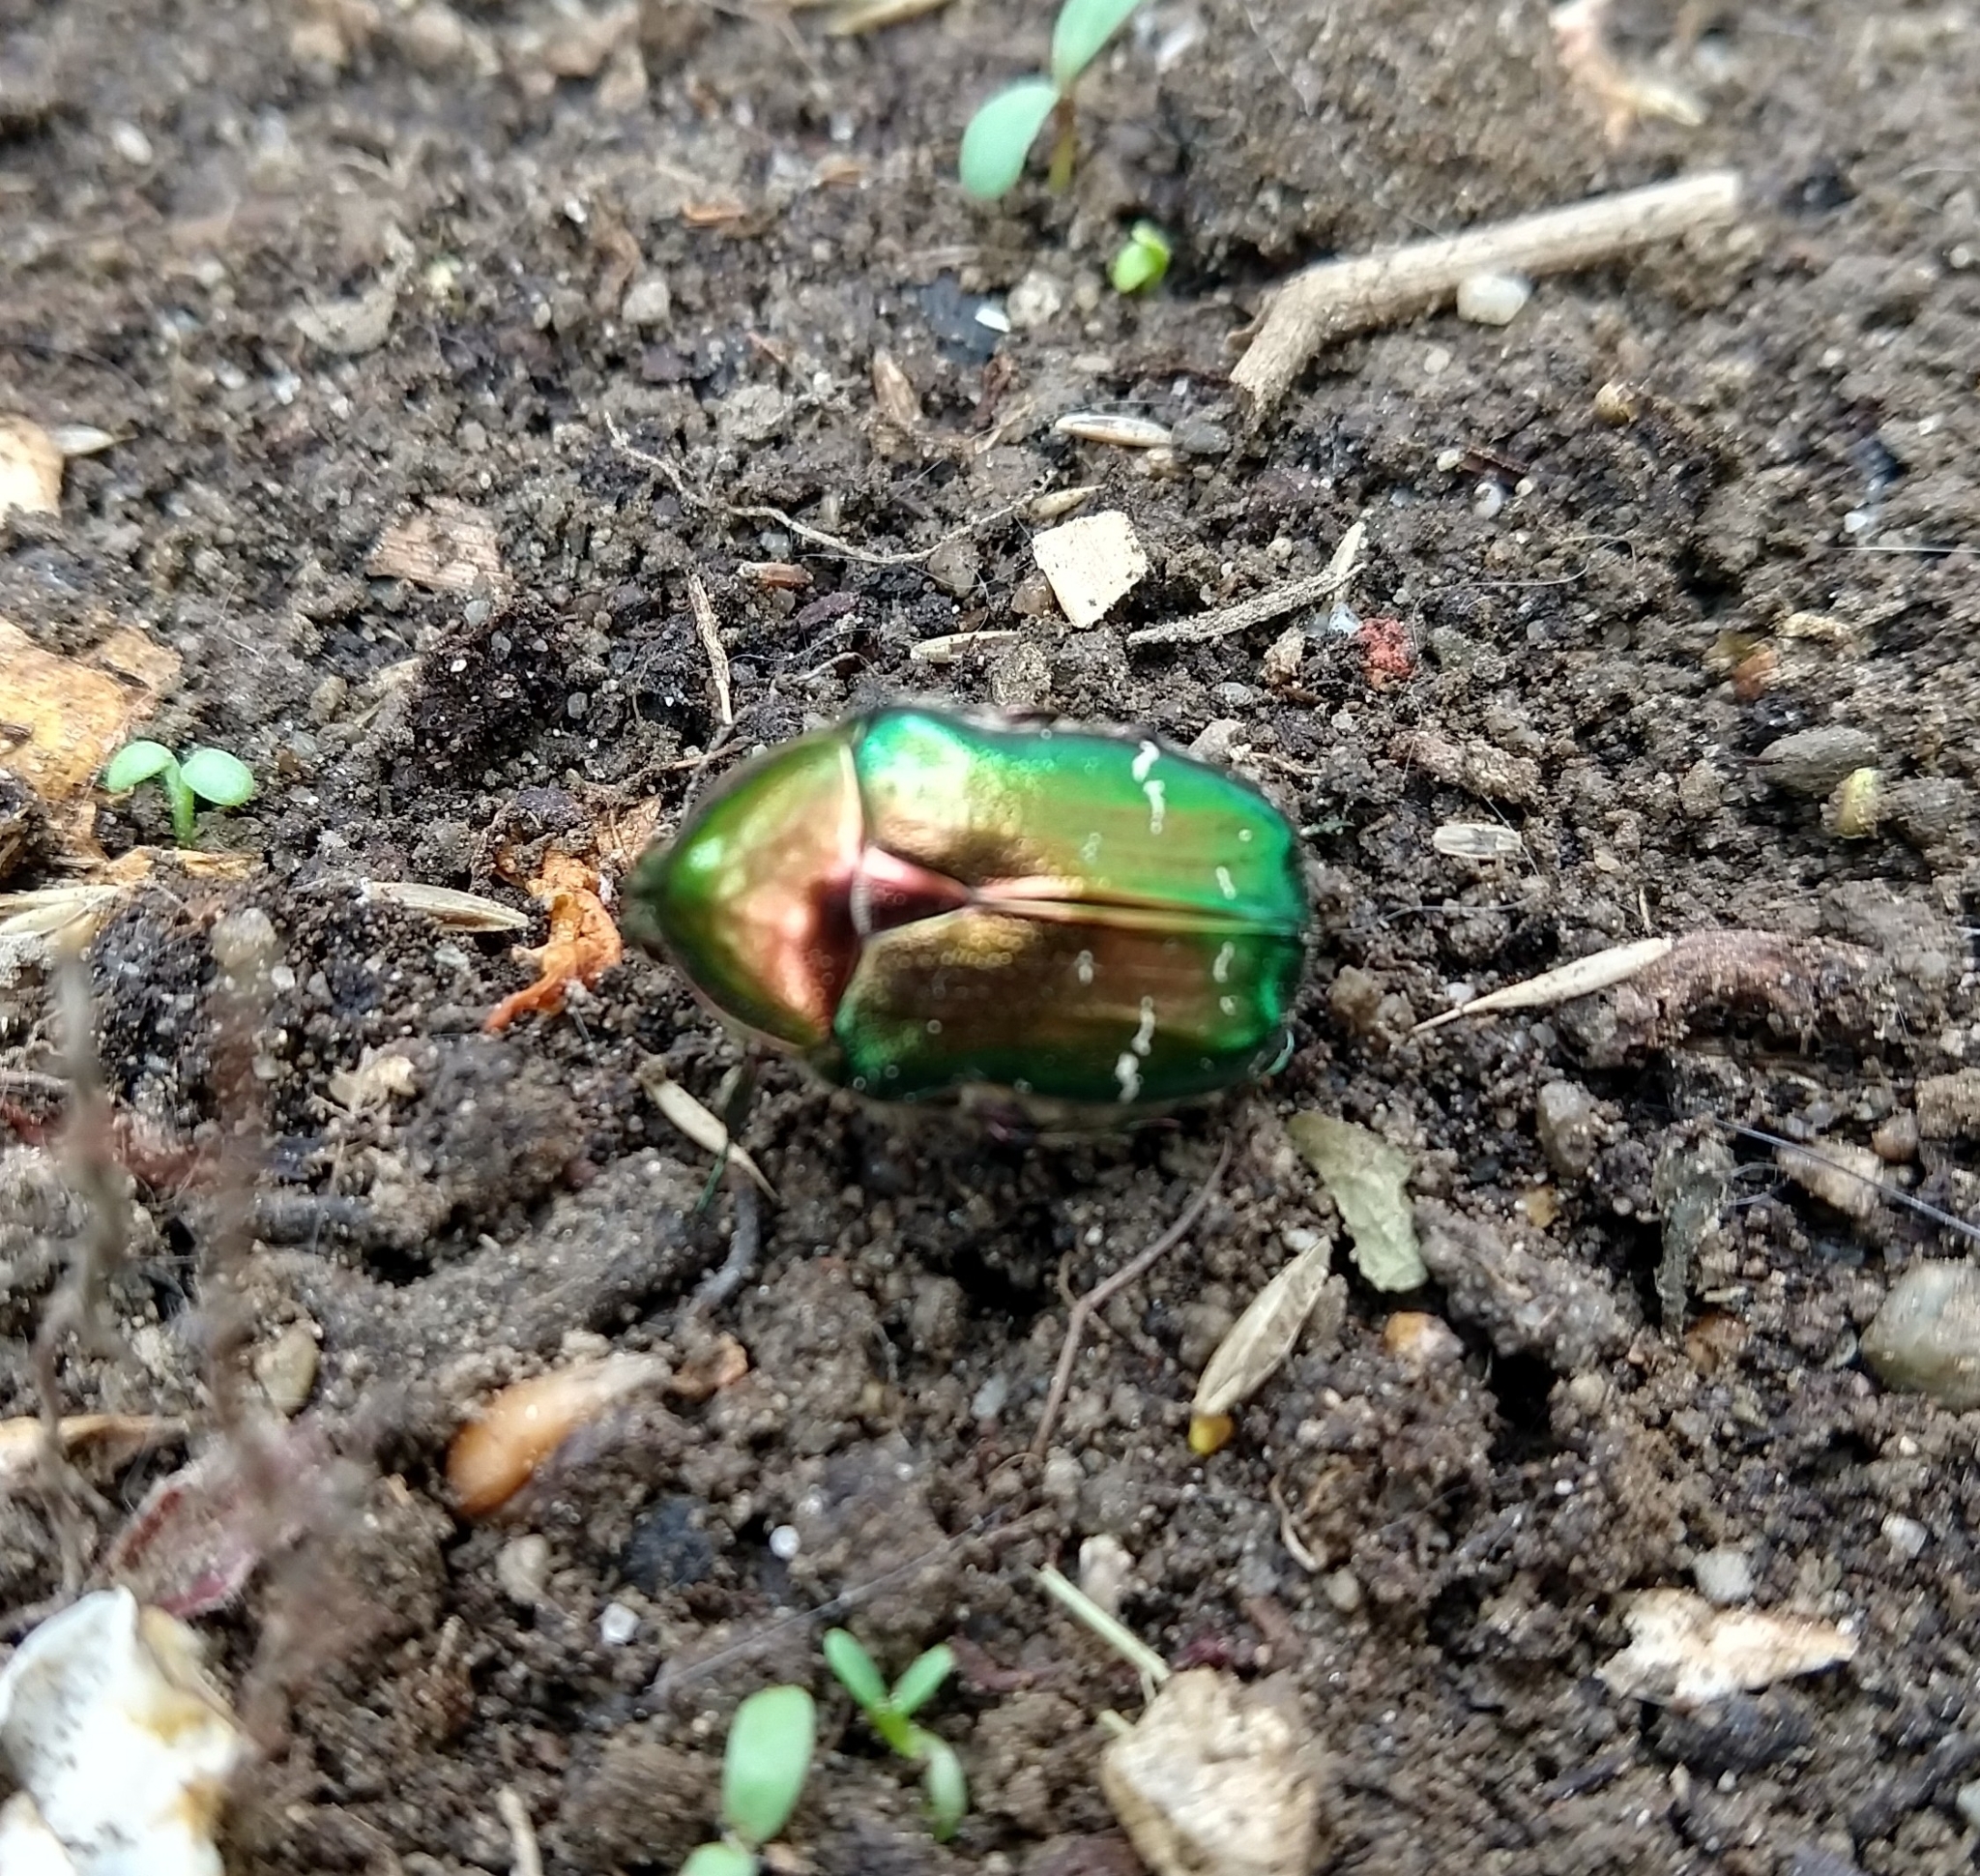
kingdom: Animalia
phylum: Arthropoda
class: Insecta
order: Coleoptera
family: Scarabaeidae
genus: Cetonia
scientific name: Cetonia aurata
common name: Rose chafer
